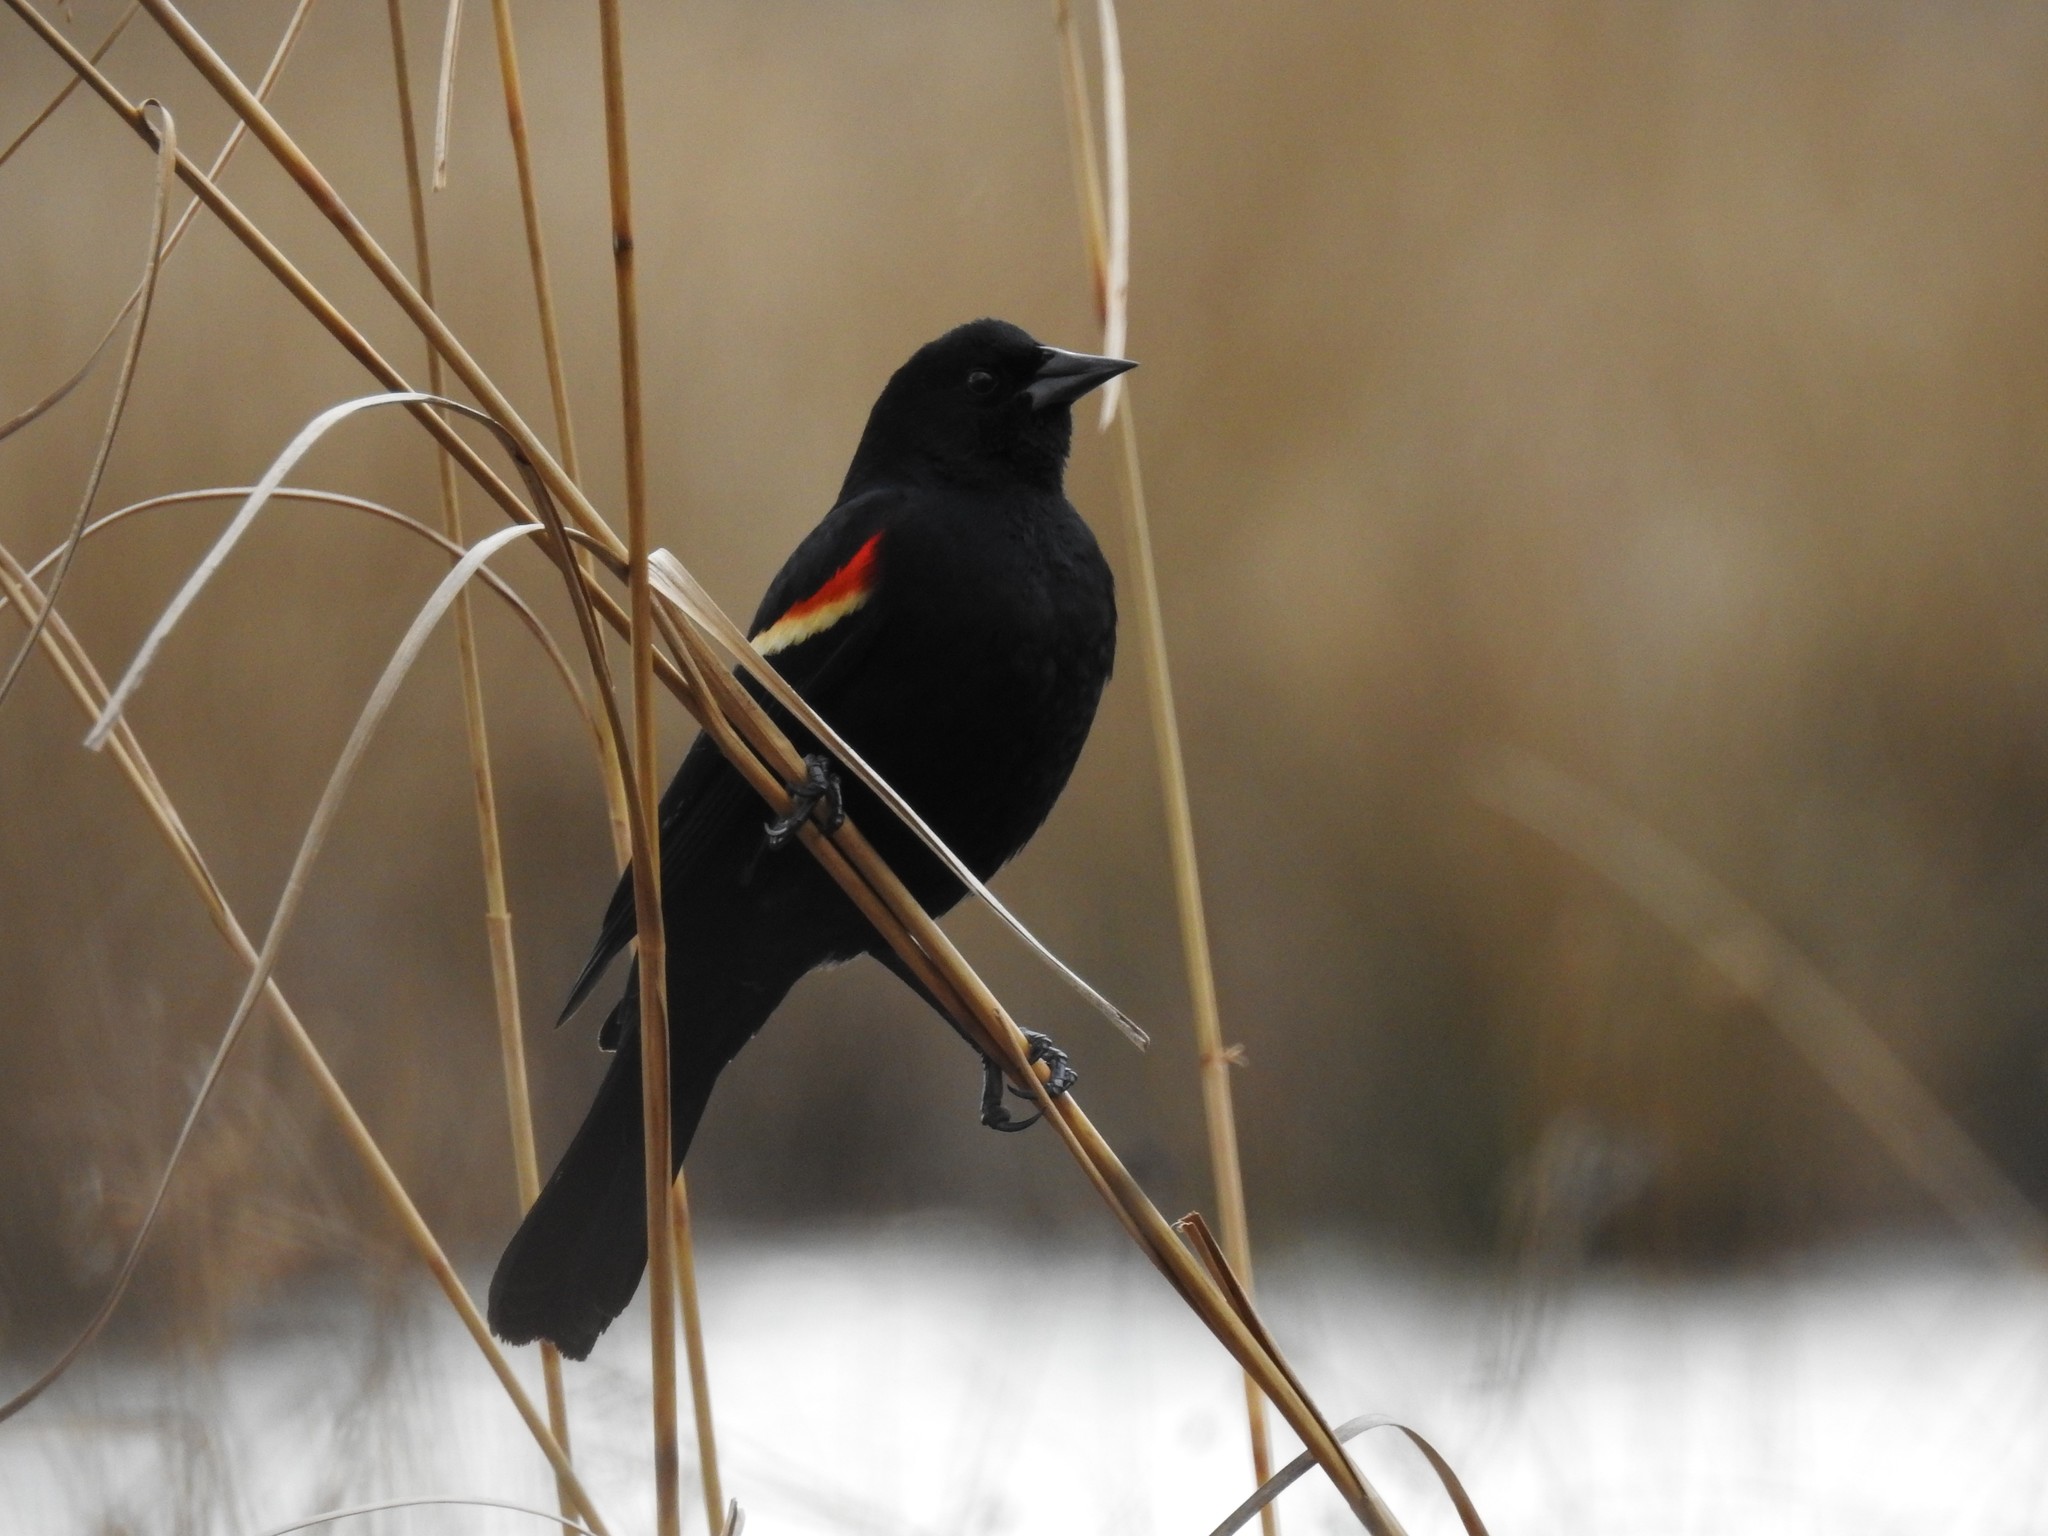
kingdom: Animalia
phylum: Chordata
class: Aves
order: Passeriformes
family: Icteridae
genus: Agelaius
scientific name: Agelaius phoeniceus
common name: Red-winged blackbird
